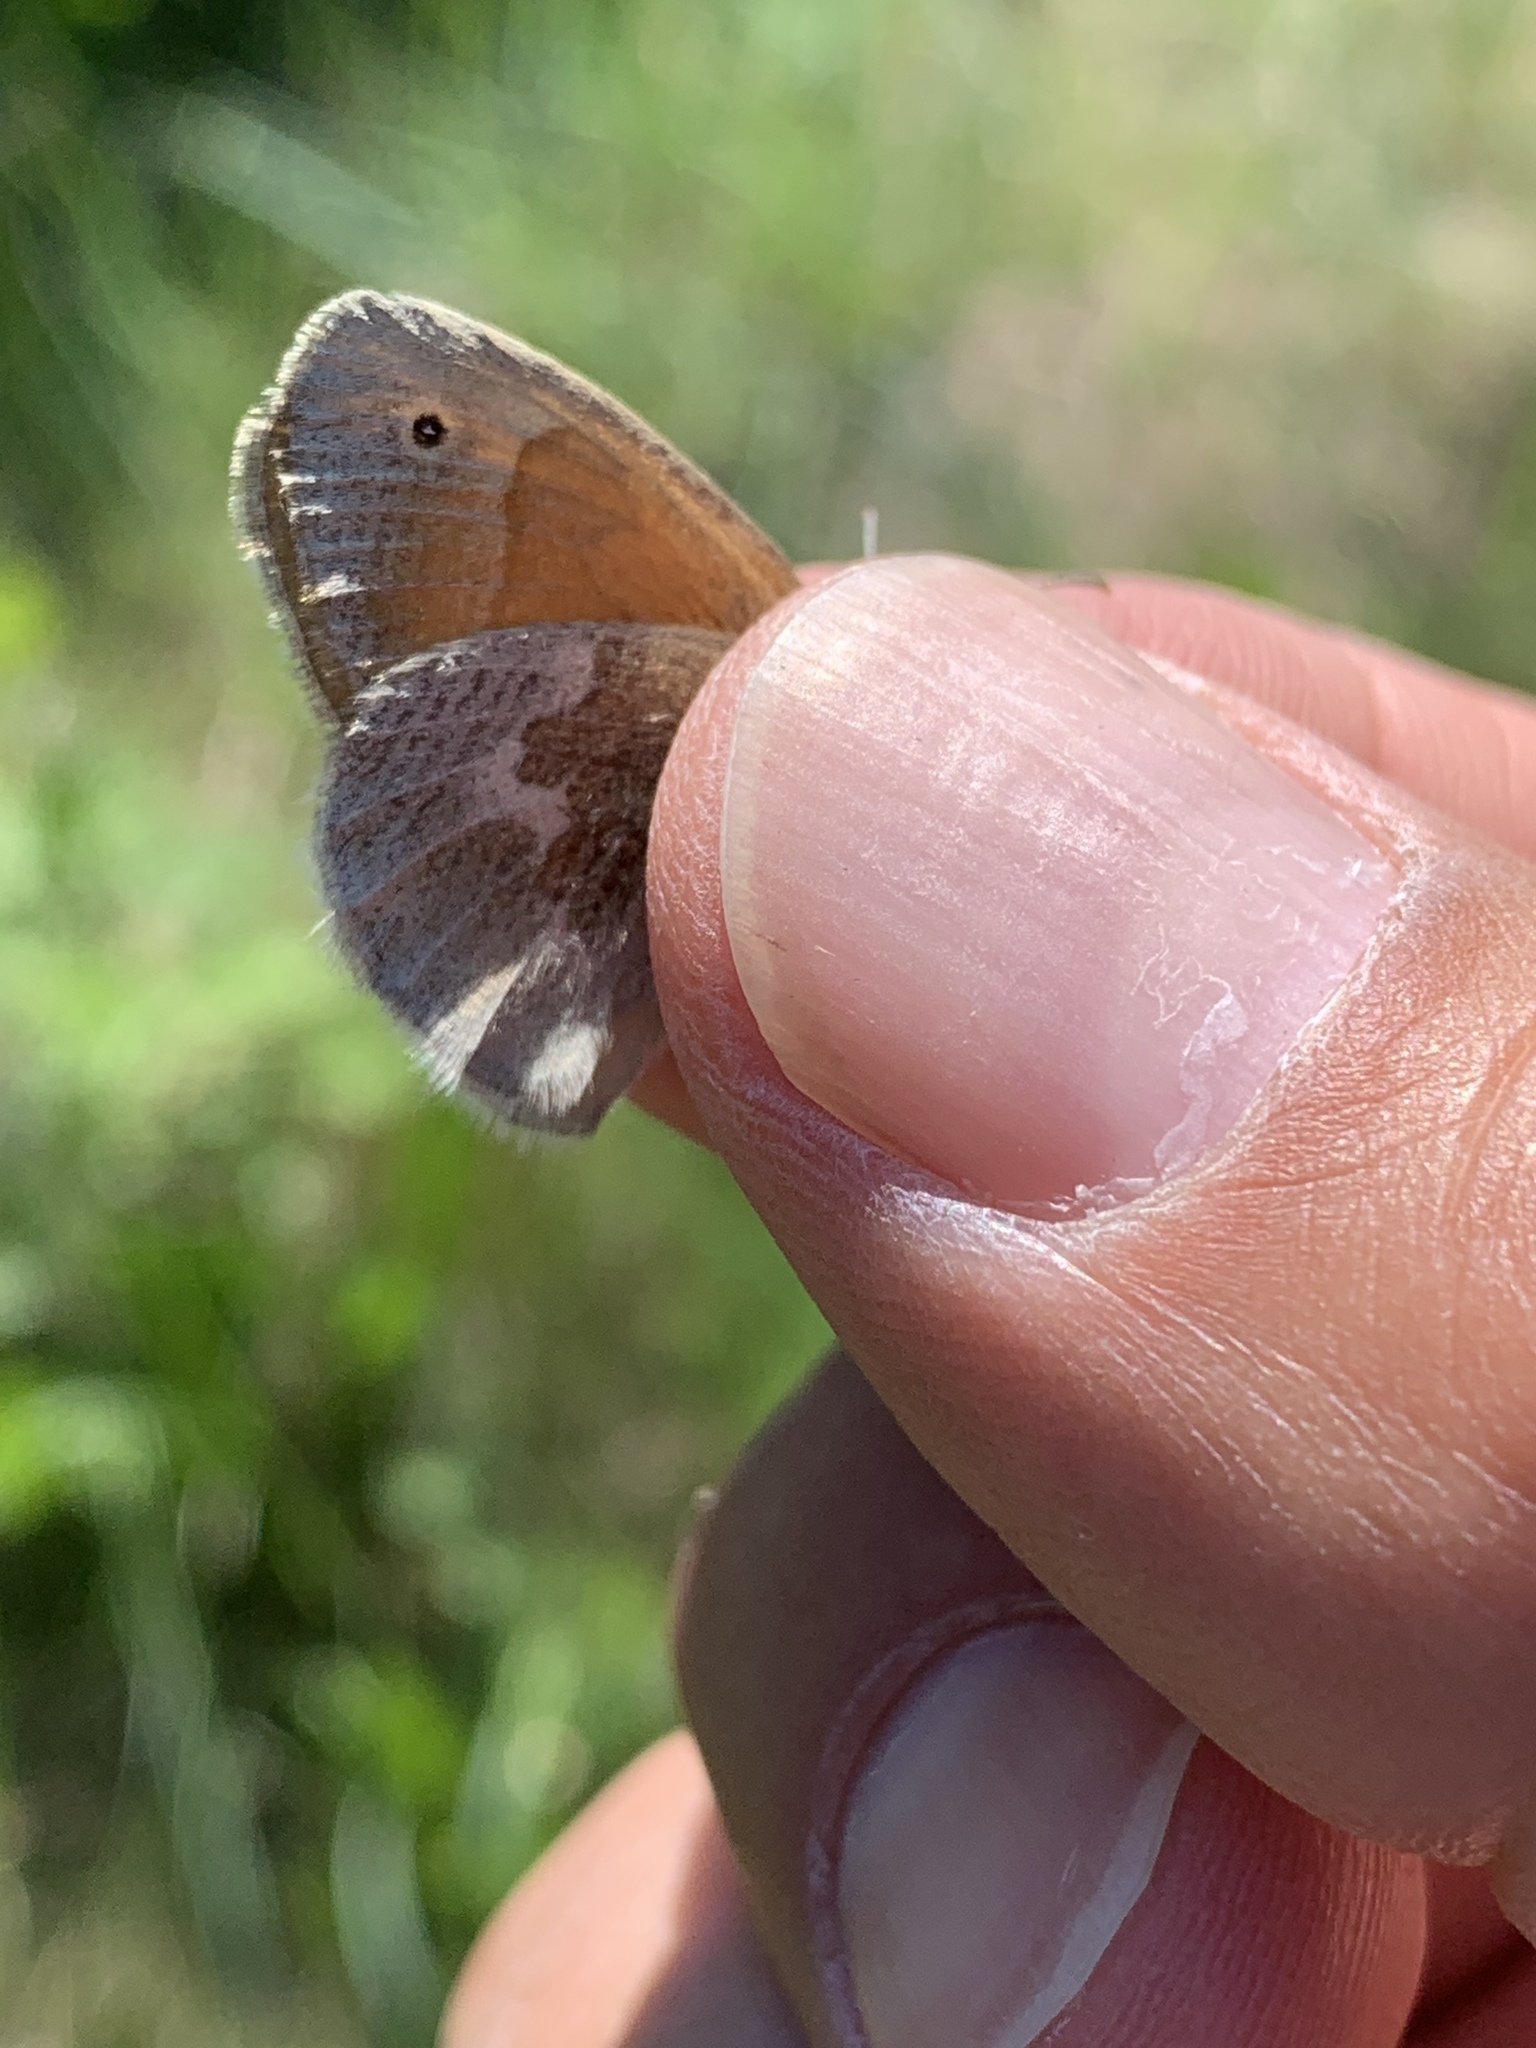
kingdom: Animalia
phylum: Arthropoda
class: Insecta
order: Lepidoptera
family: Nymphalidae
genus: Coenonympha
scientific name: Coenonympha california
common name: Common ringlet
